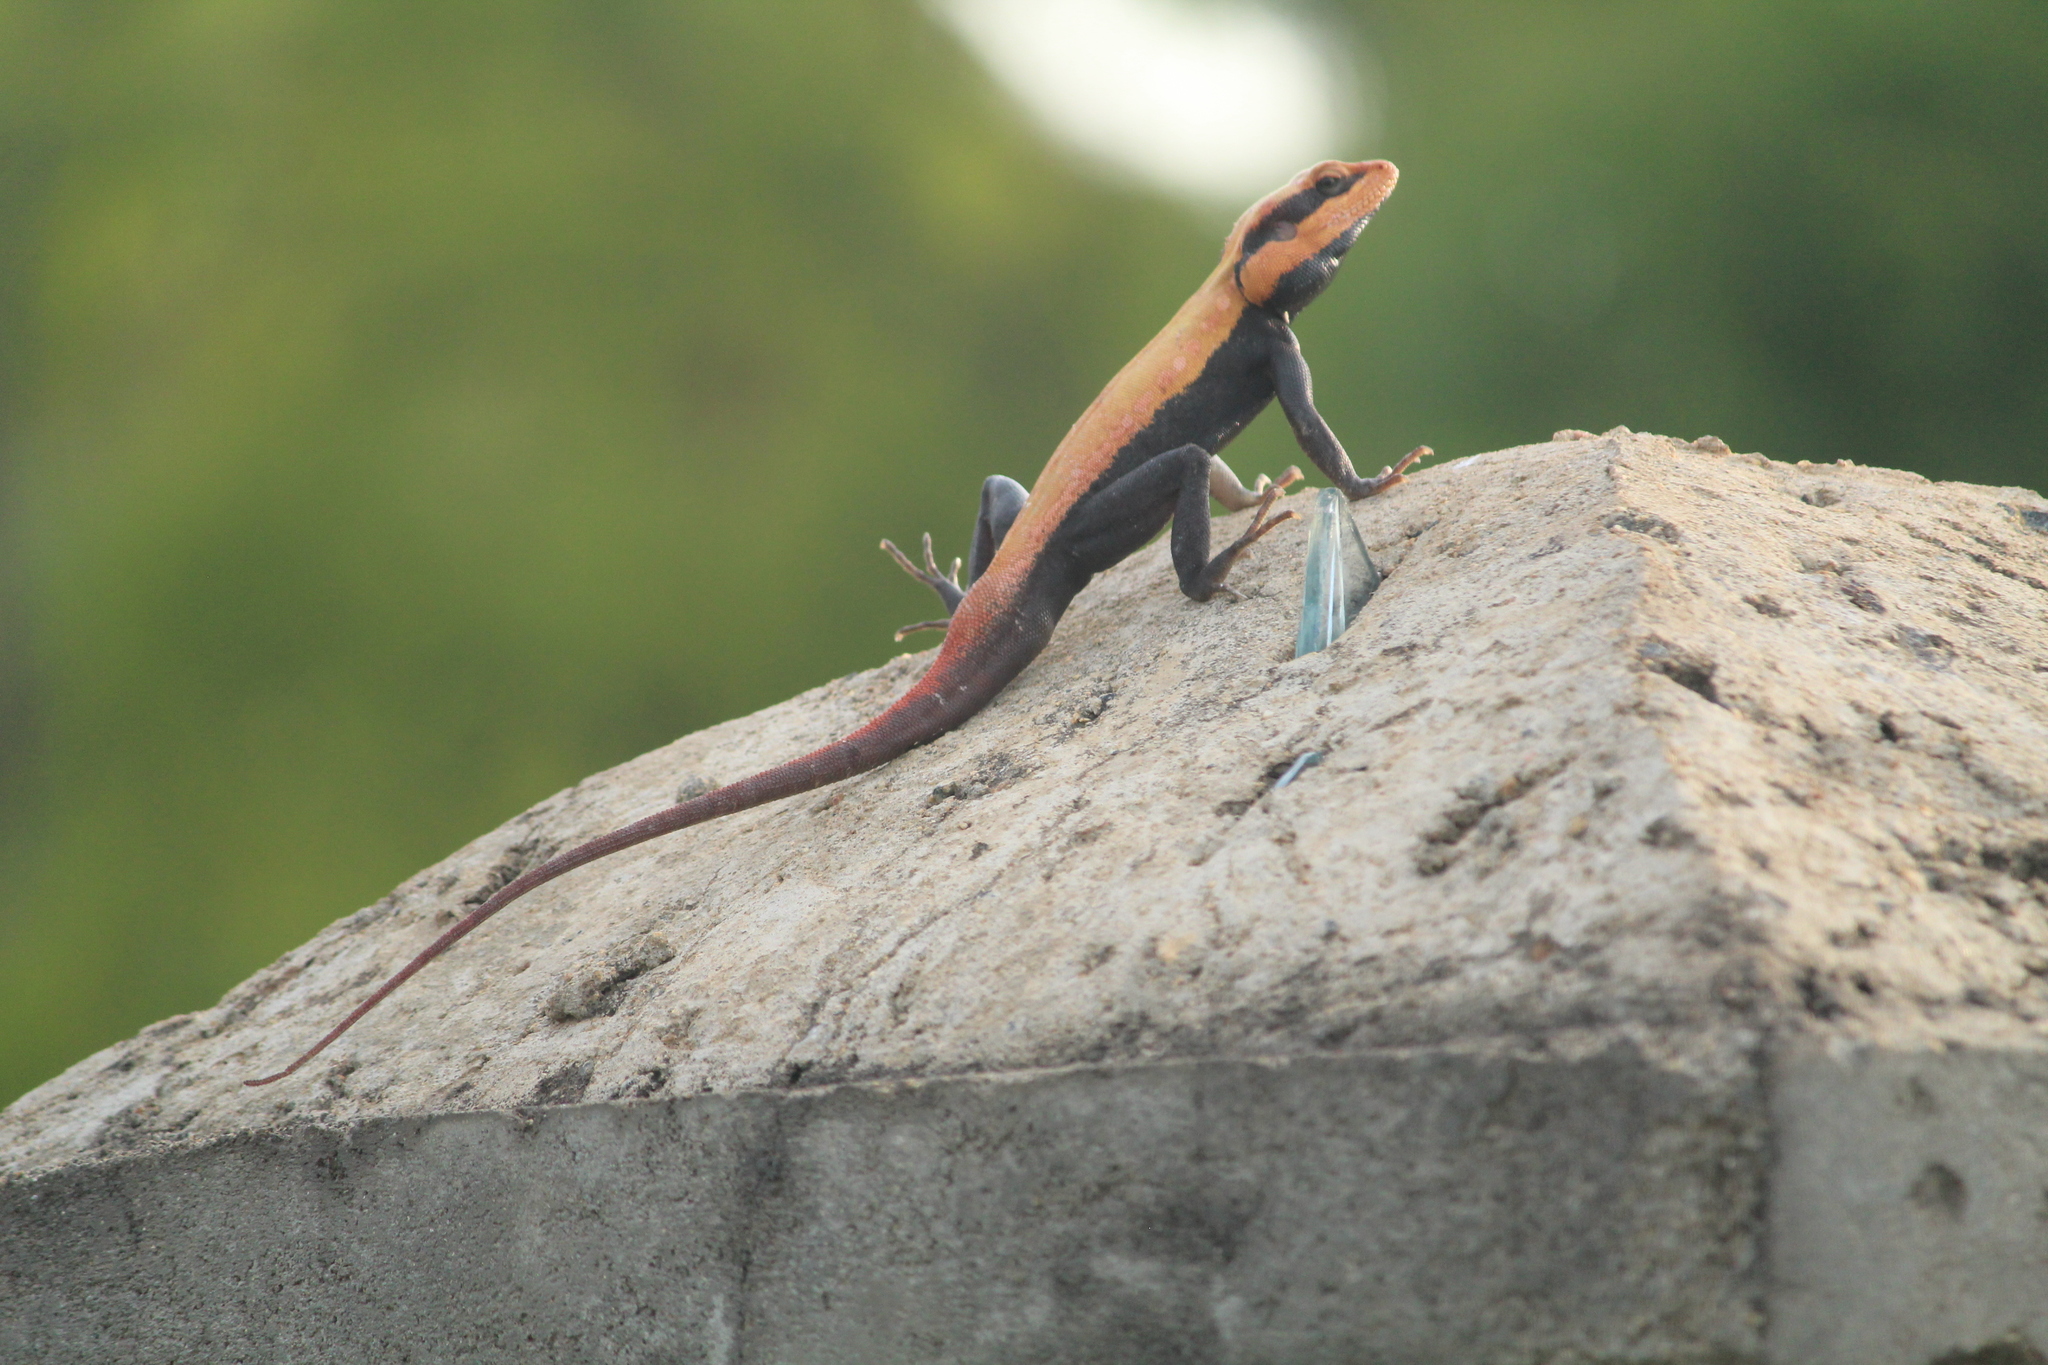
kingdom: Animalia
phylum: Chordata
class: Squamata
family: Agamidae
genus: Psammophilus
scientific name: Psammophilus dorsalis
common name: South indian rock agama
